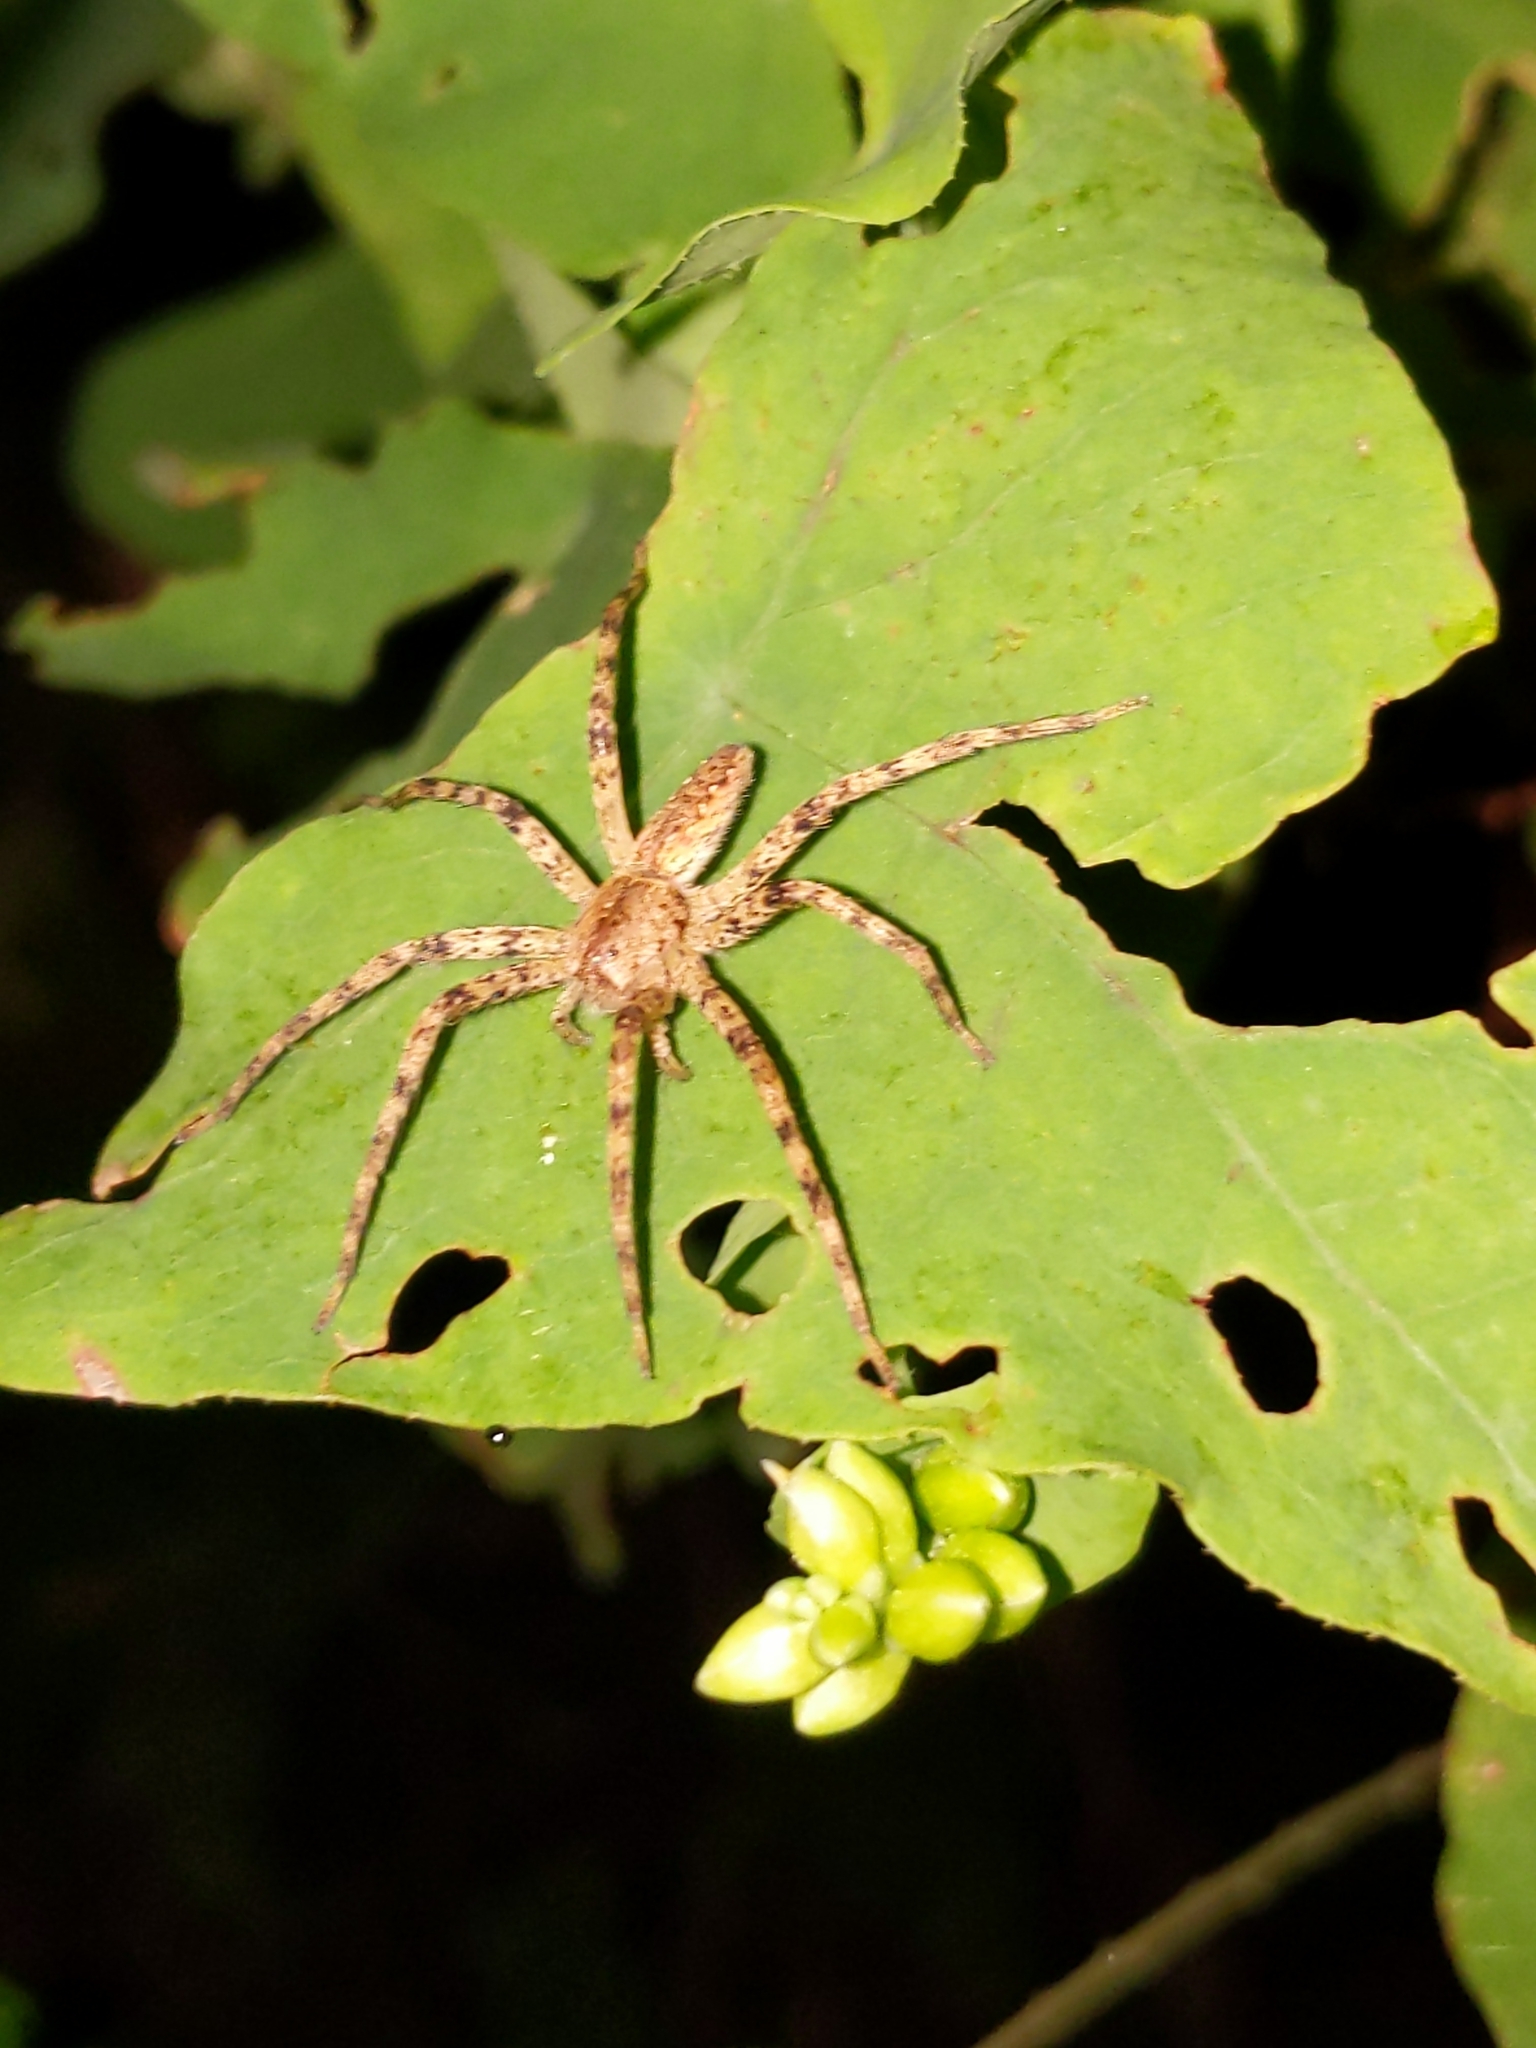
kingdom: Animalia
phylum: Arthropoda
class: Arachnida
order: Araneae
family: Pisauridae
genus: Pisaurina
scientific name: Pisaurina mira
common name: American nursery web spider
